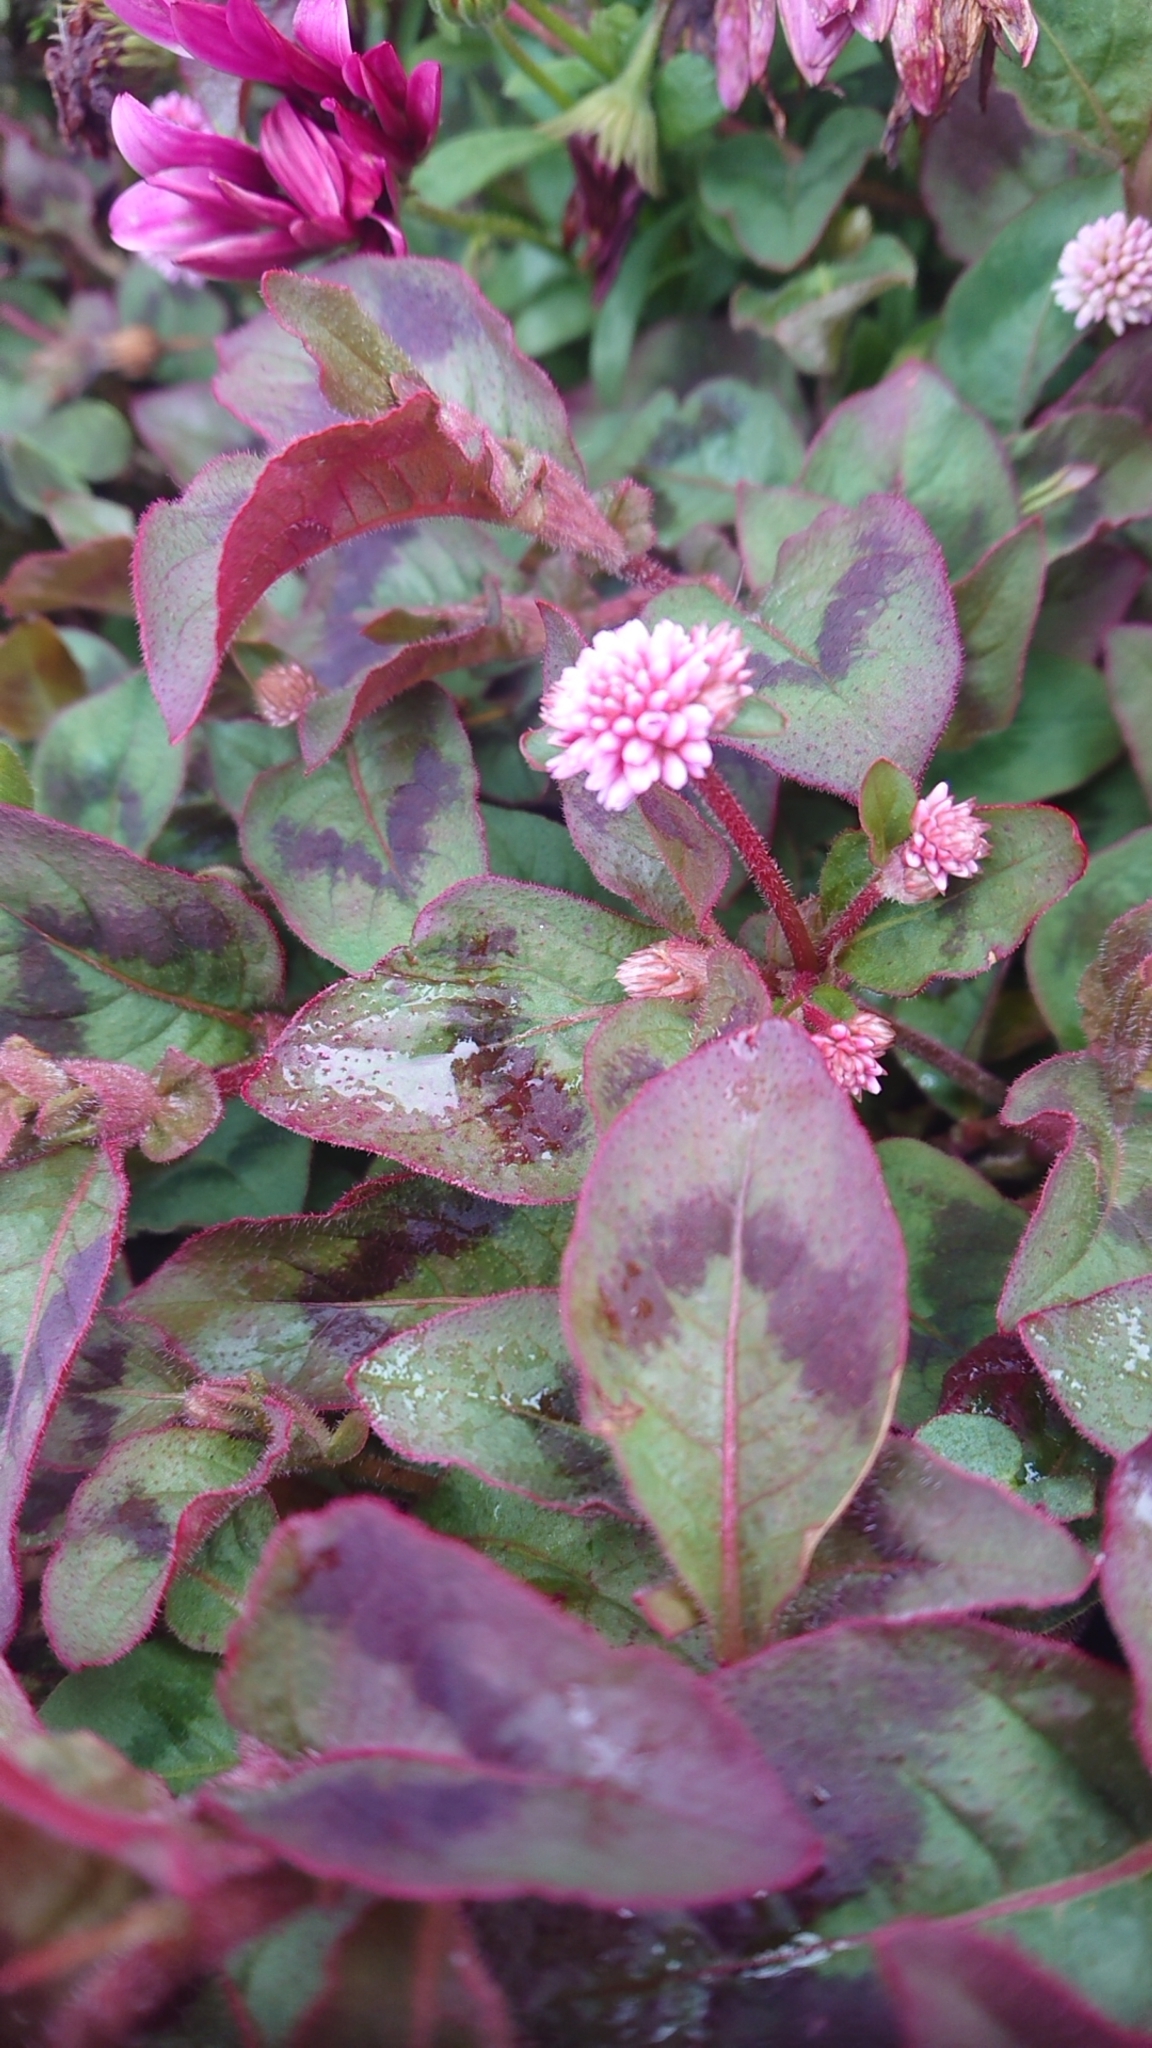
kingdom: Plantae
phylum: Tracheophyta
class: Magnoliopsida
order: Caryophyllales
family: Polygonaceae
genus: Persicaria
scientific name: Persicaria capitata
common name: Pinkhead smartweed
